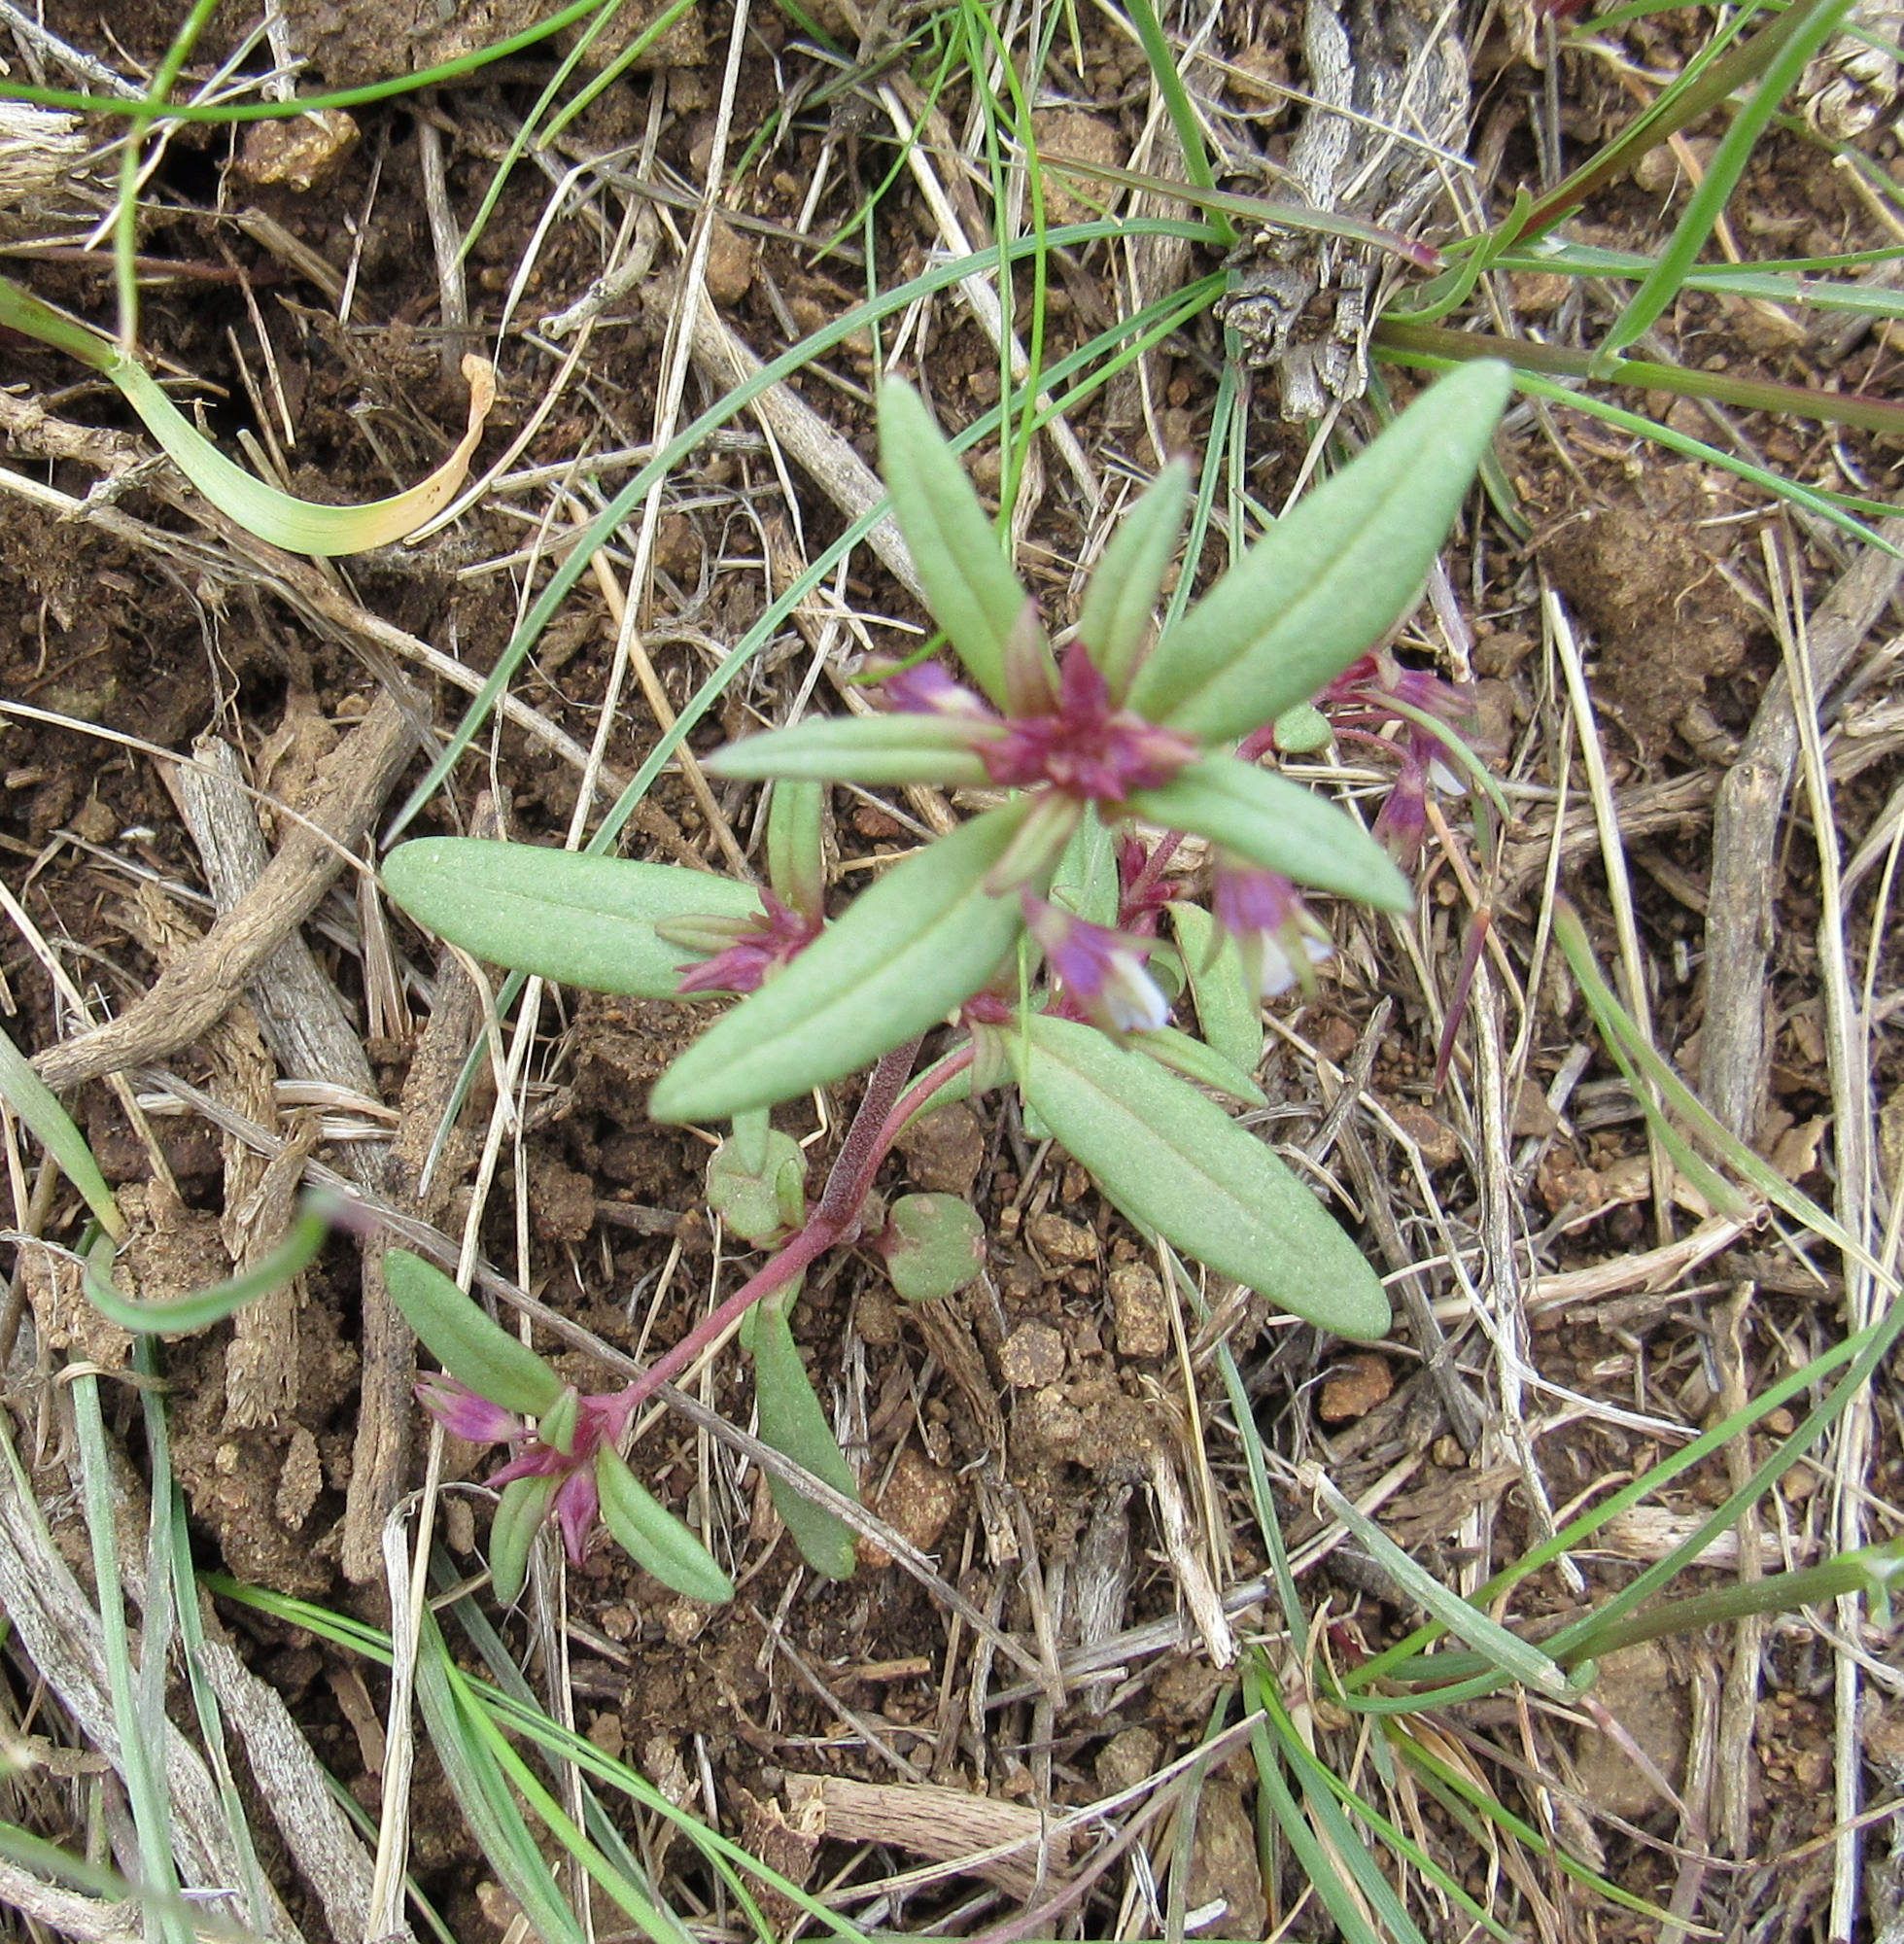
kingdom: Plantae
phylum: Tracheophyta
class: Magnoliopsida
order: Lamiales
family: Plantaginaceae
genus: Collinsia
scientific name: Collinsia parviflora
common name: Blue-lips
